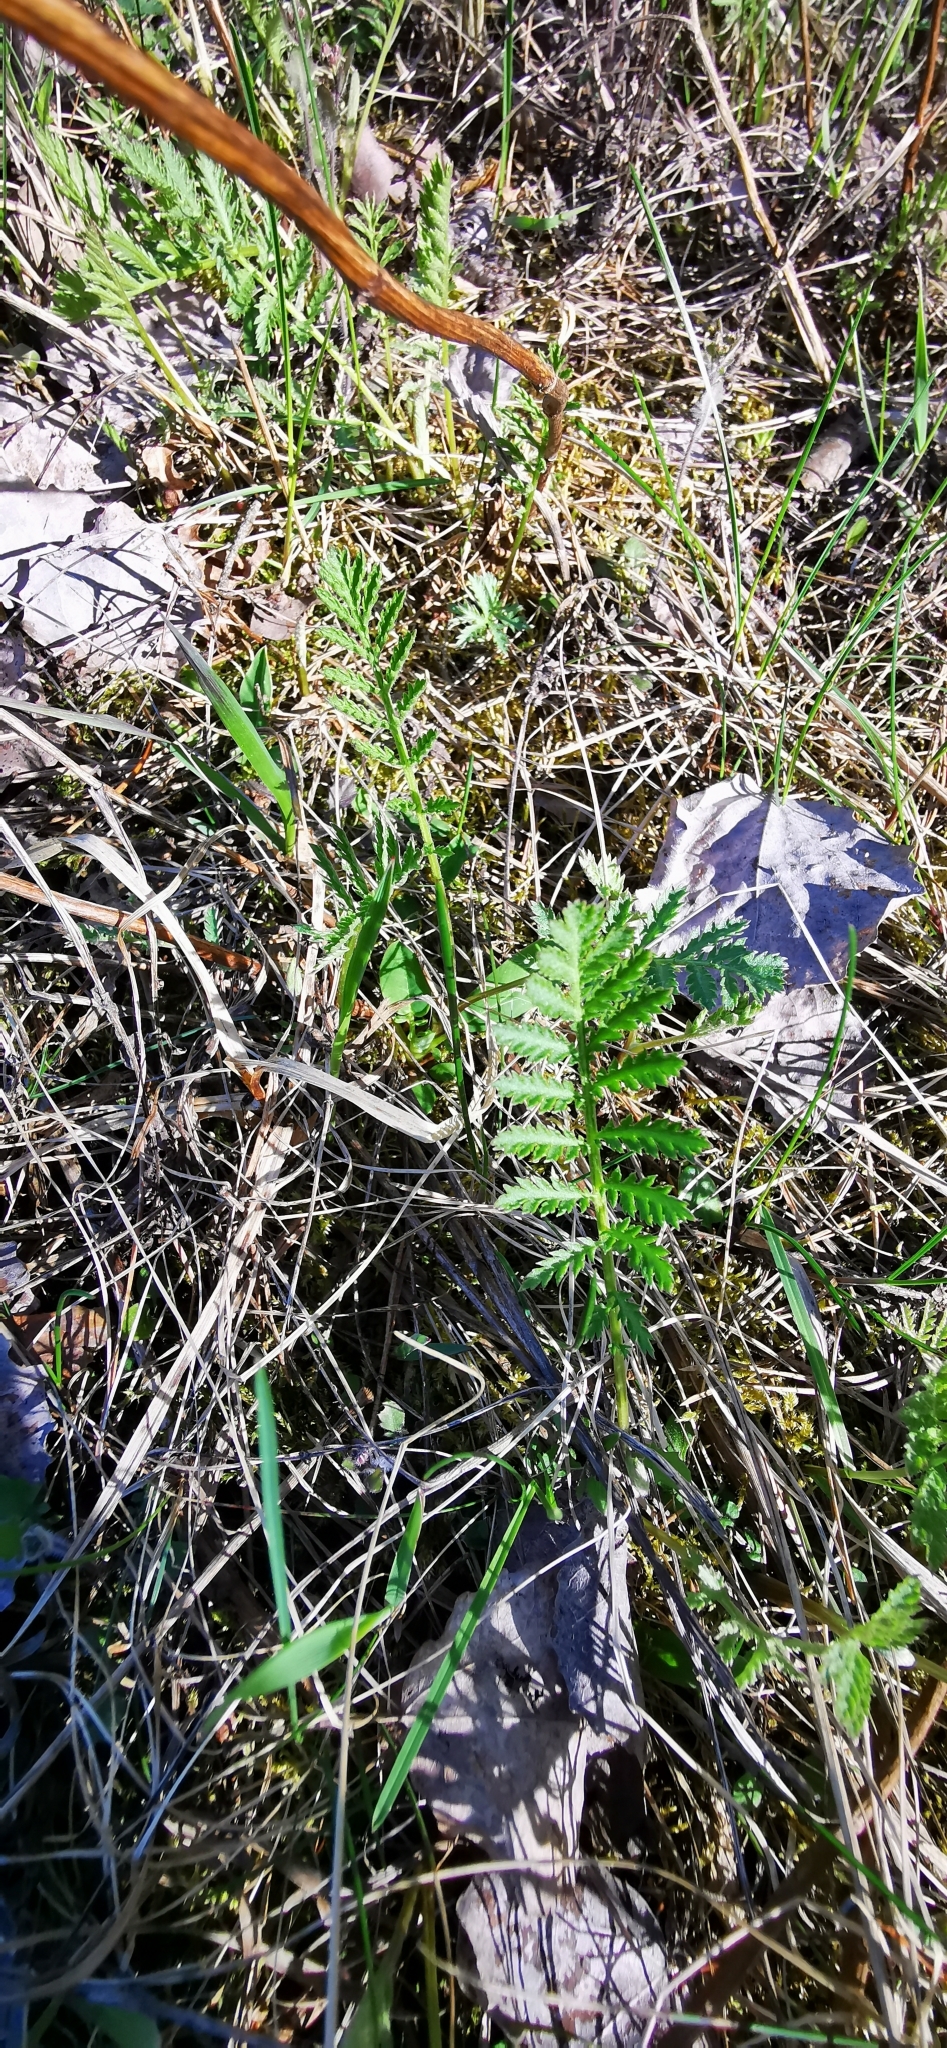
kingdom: Plantae
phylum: Tracheophyta
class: Magnoliopsida
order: Asterales
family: Asteraceae
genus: Tanacetum
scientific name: Tanacetum vulgare
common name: Common tansy
